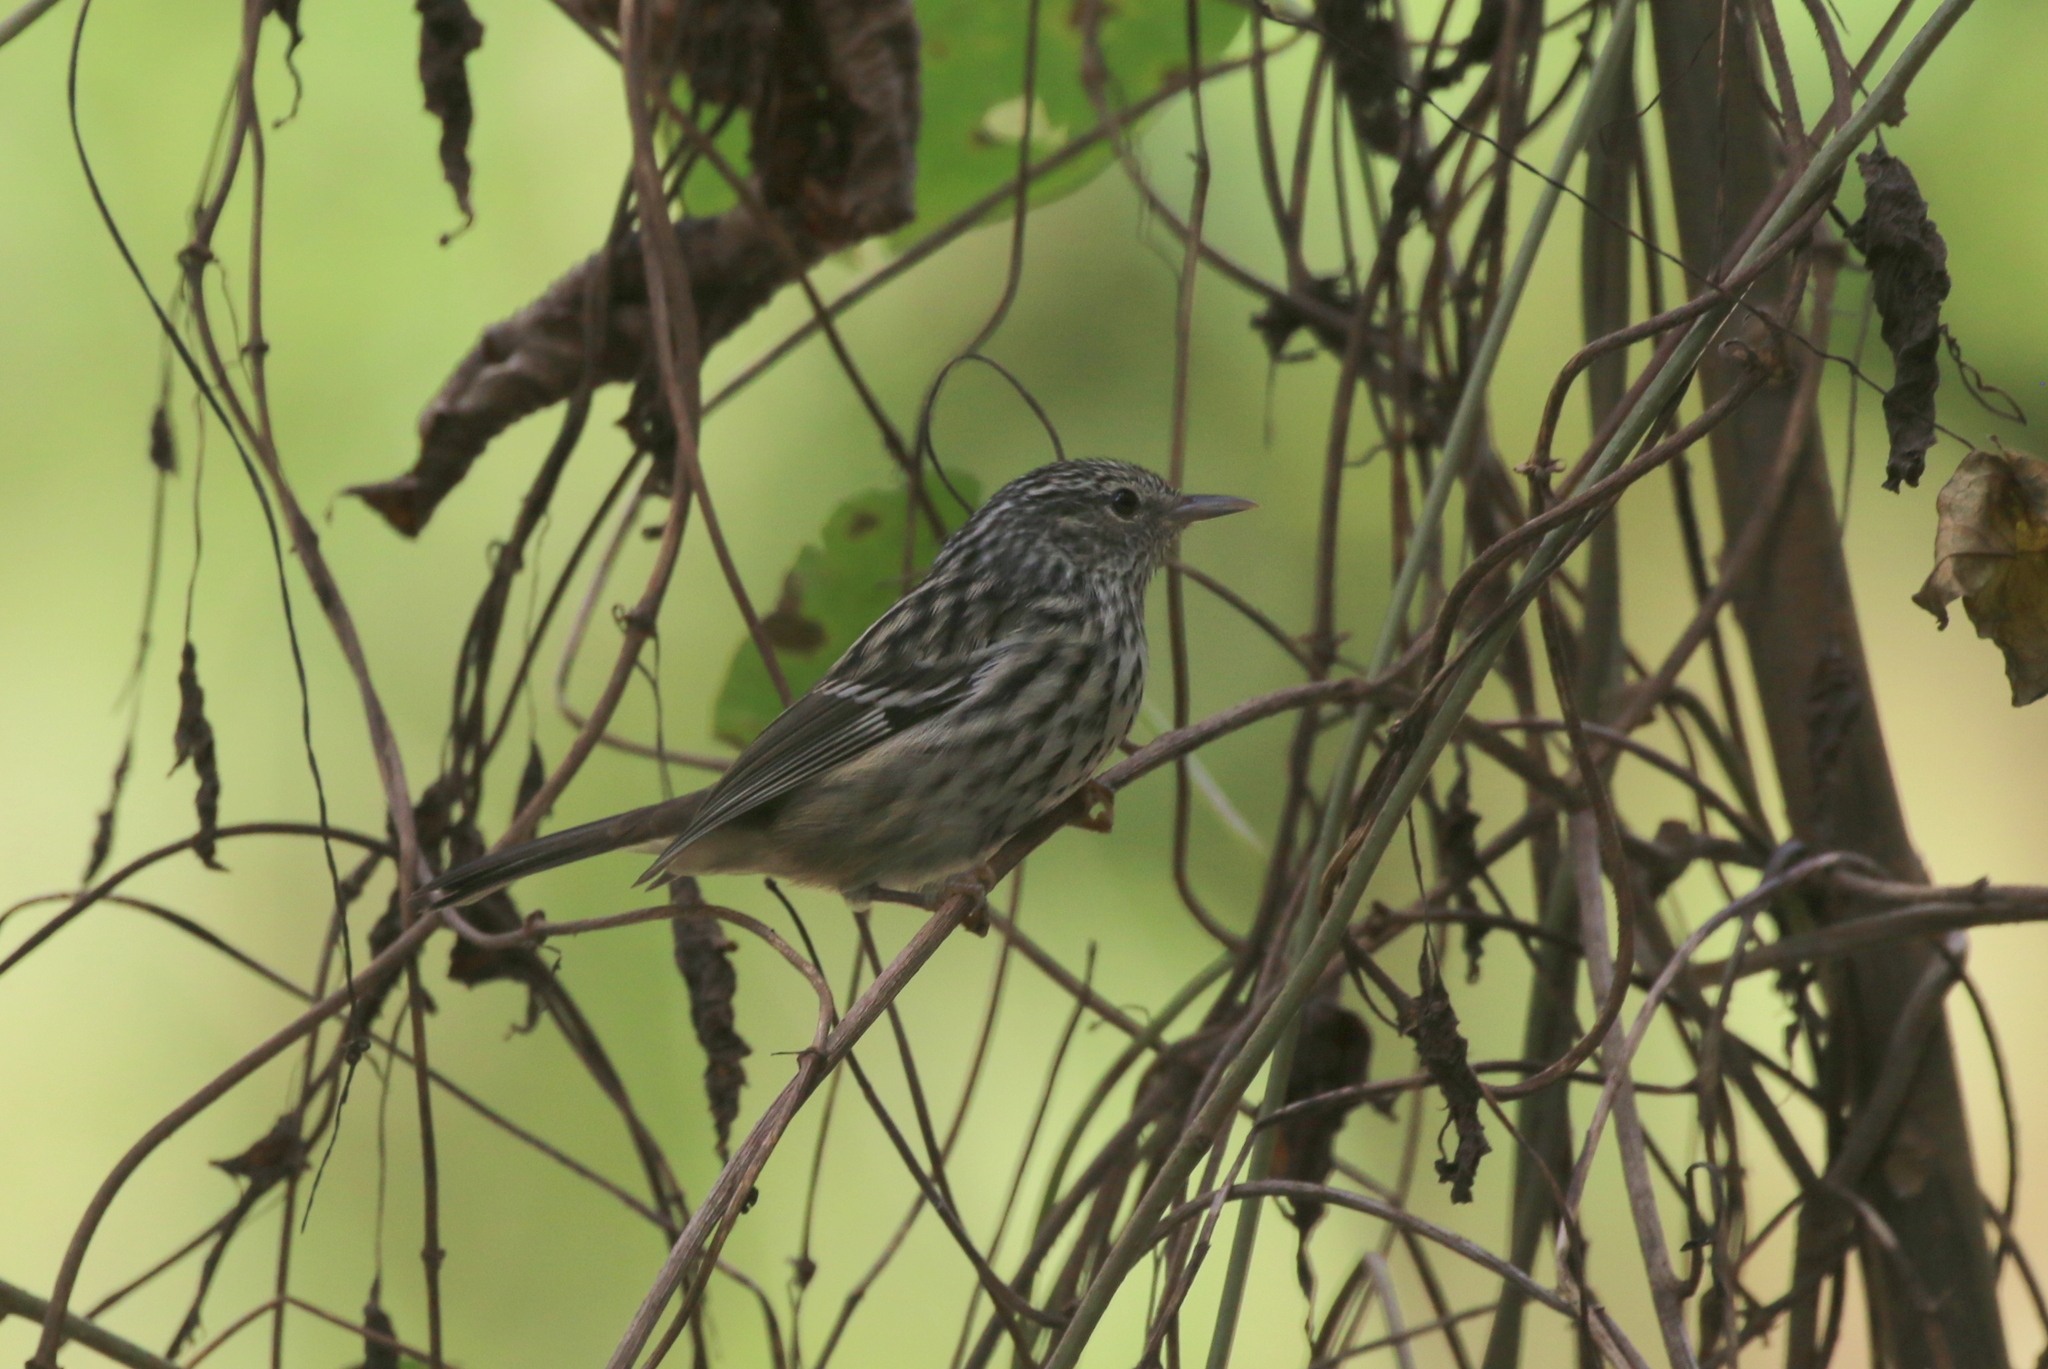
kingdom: Animalia
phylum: Chordata
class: Aves
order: Passeriformes
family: Parulidae
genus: Setophaga
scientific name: Setophaga pharetra
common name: Arrowhead warbler
